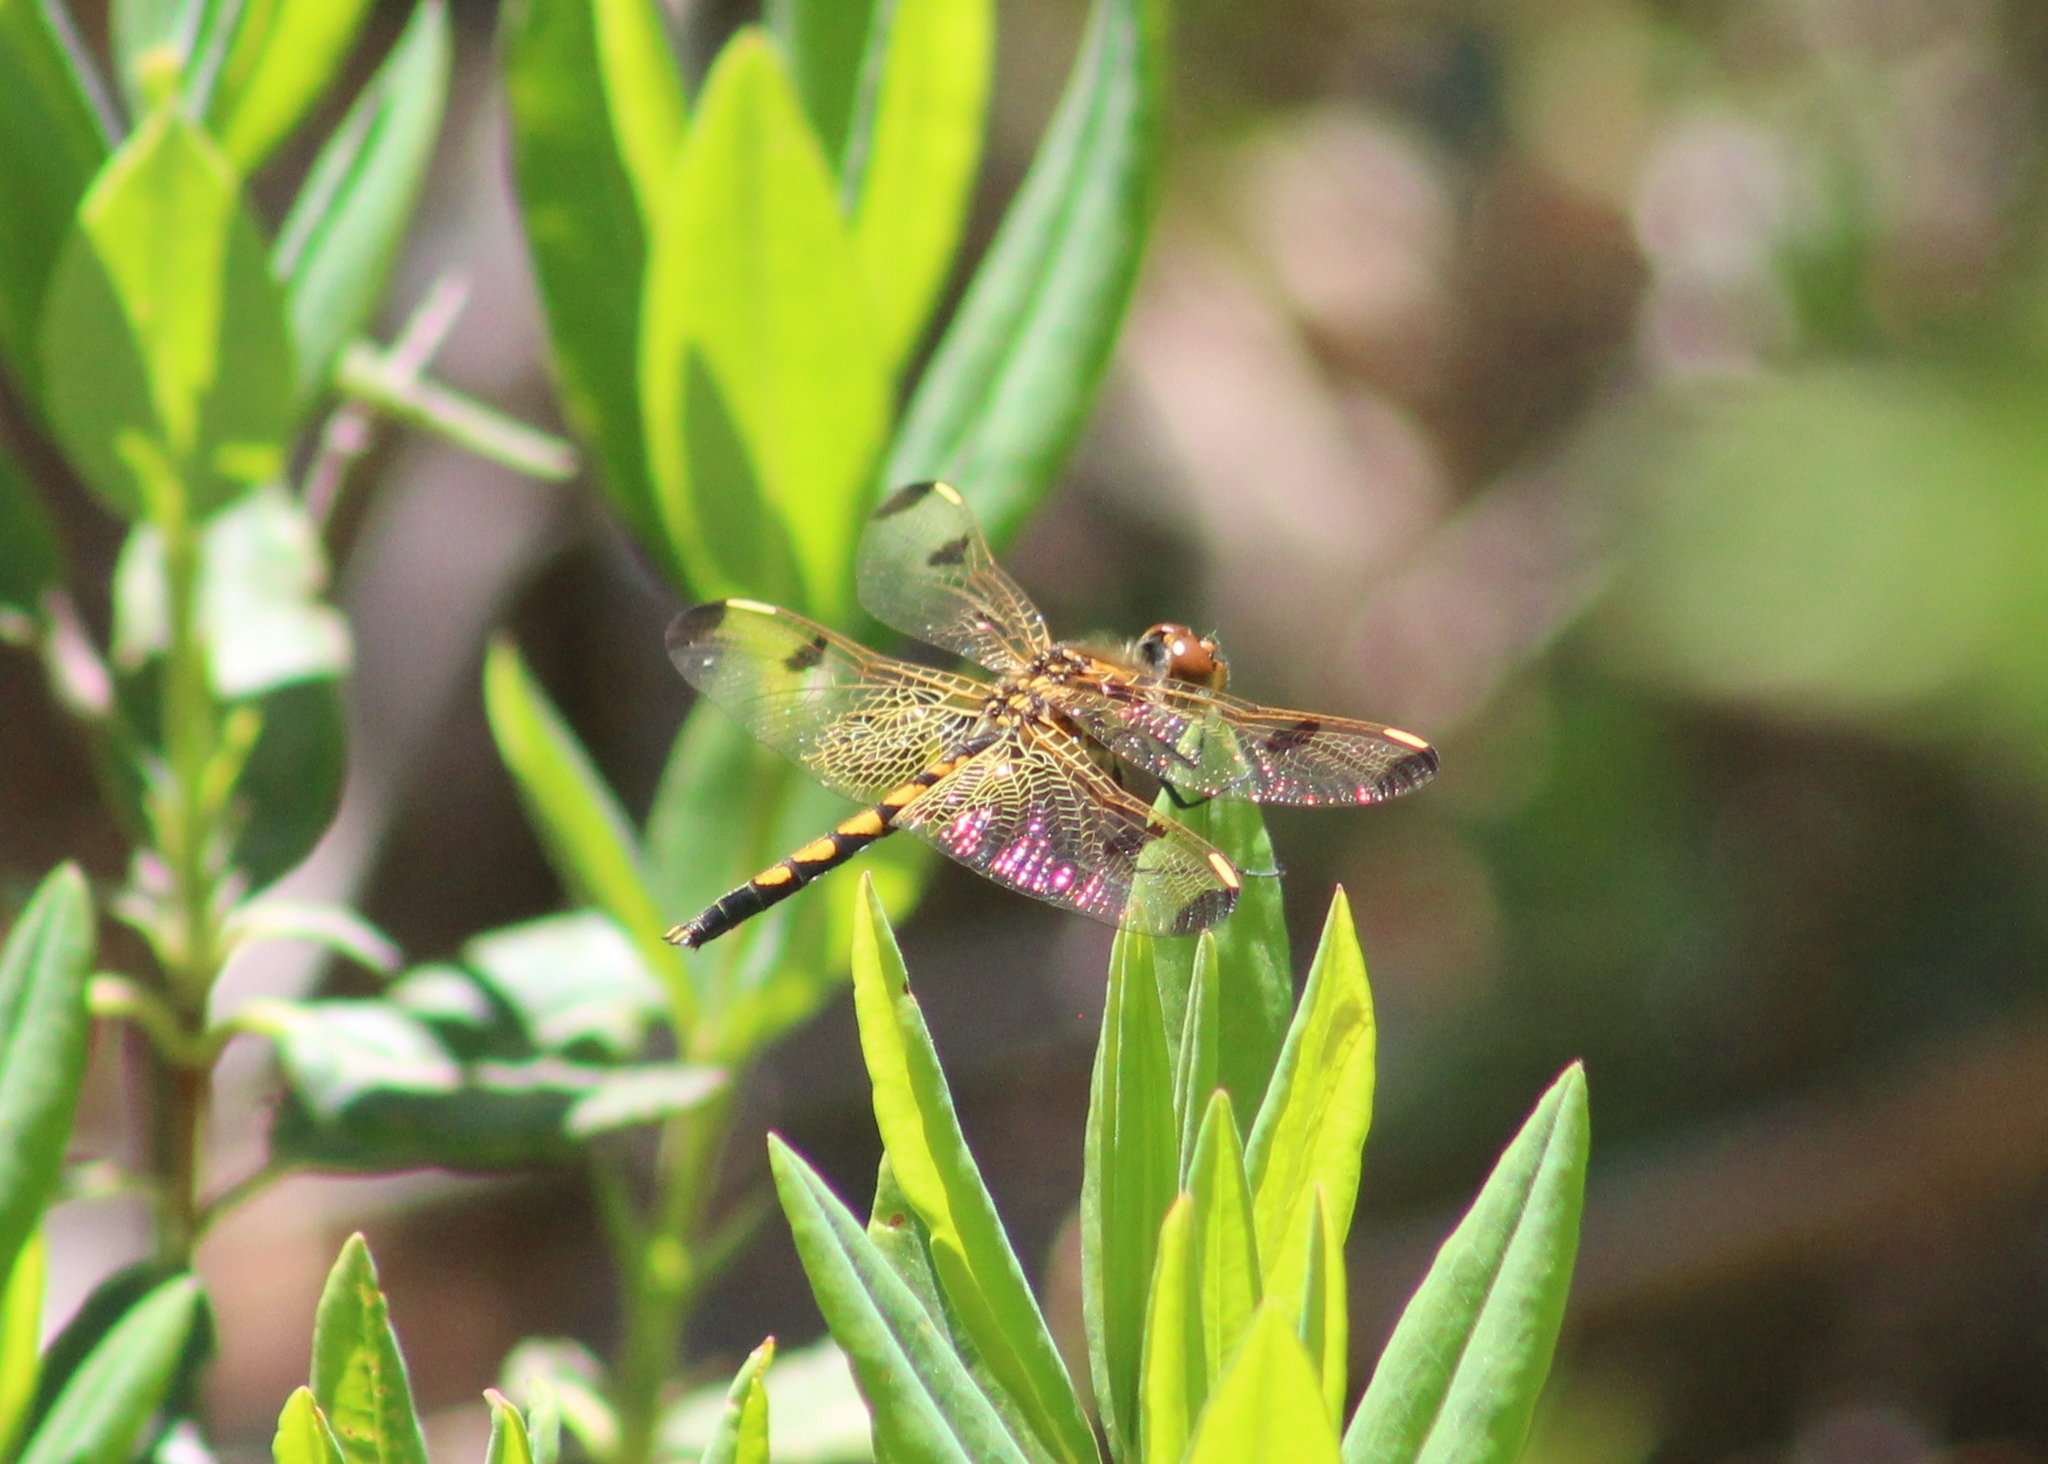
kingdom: Animalia
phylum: Arthropoda
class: Insecta
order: Odonata
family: Libellulidae
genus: Celithemis
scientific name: Celithemis elisa
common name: Calico pennant
